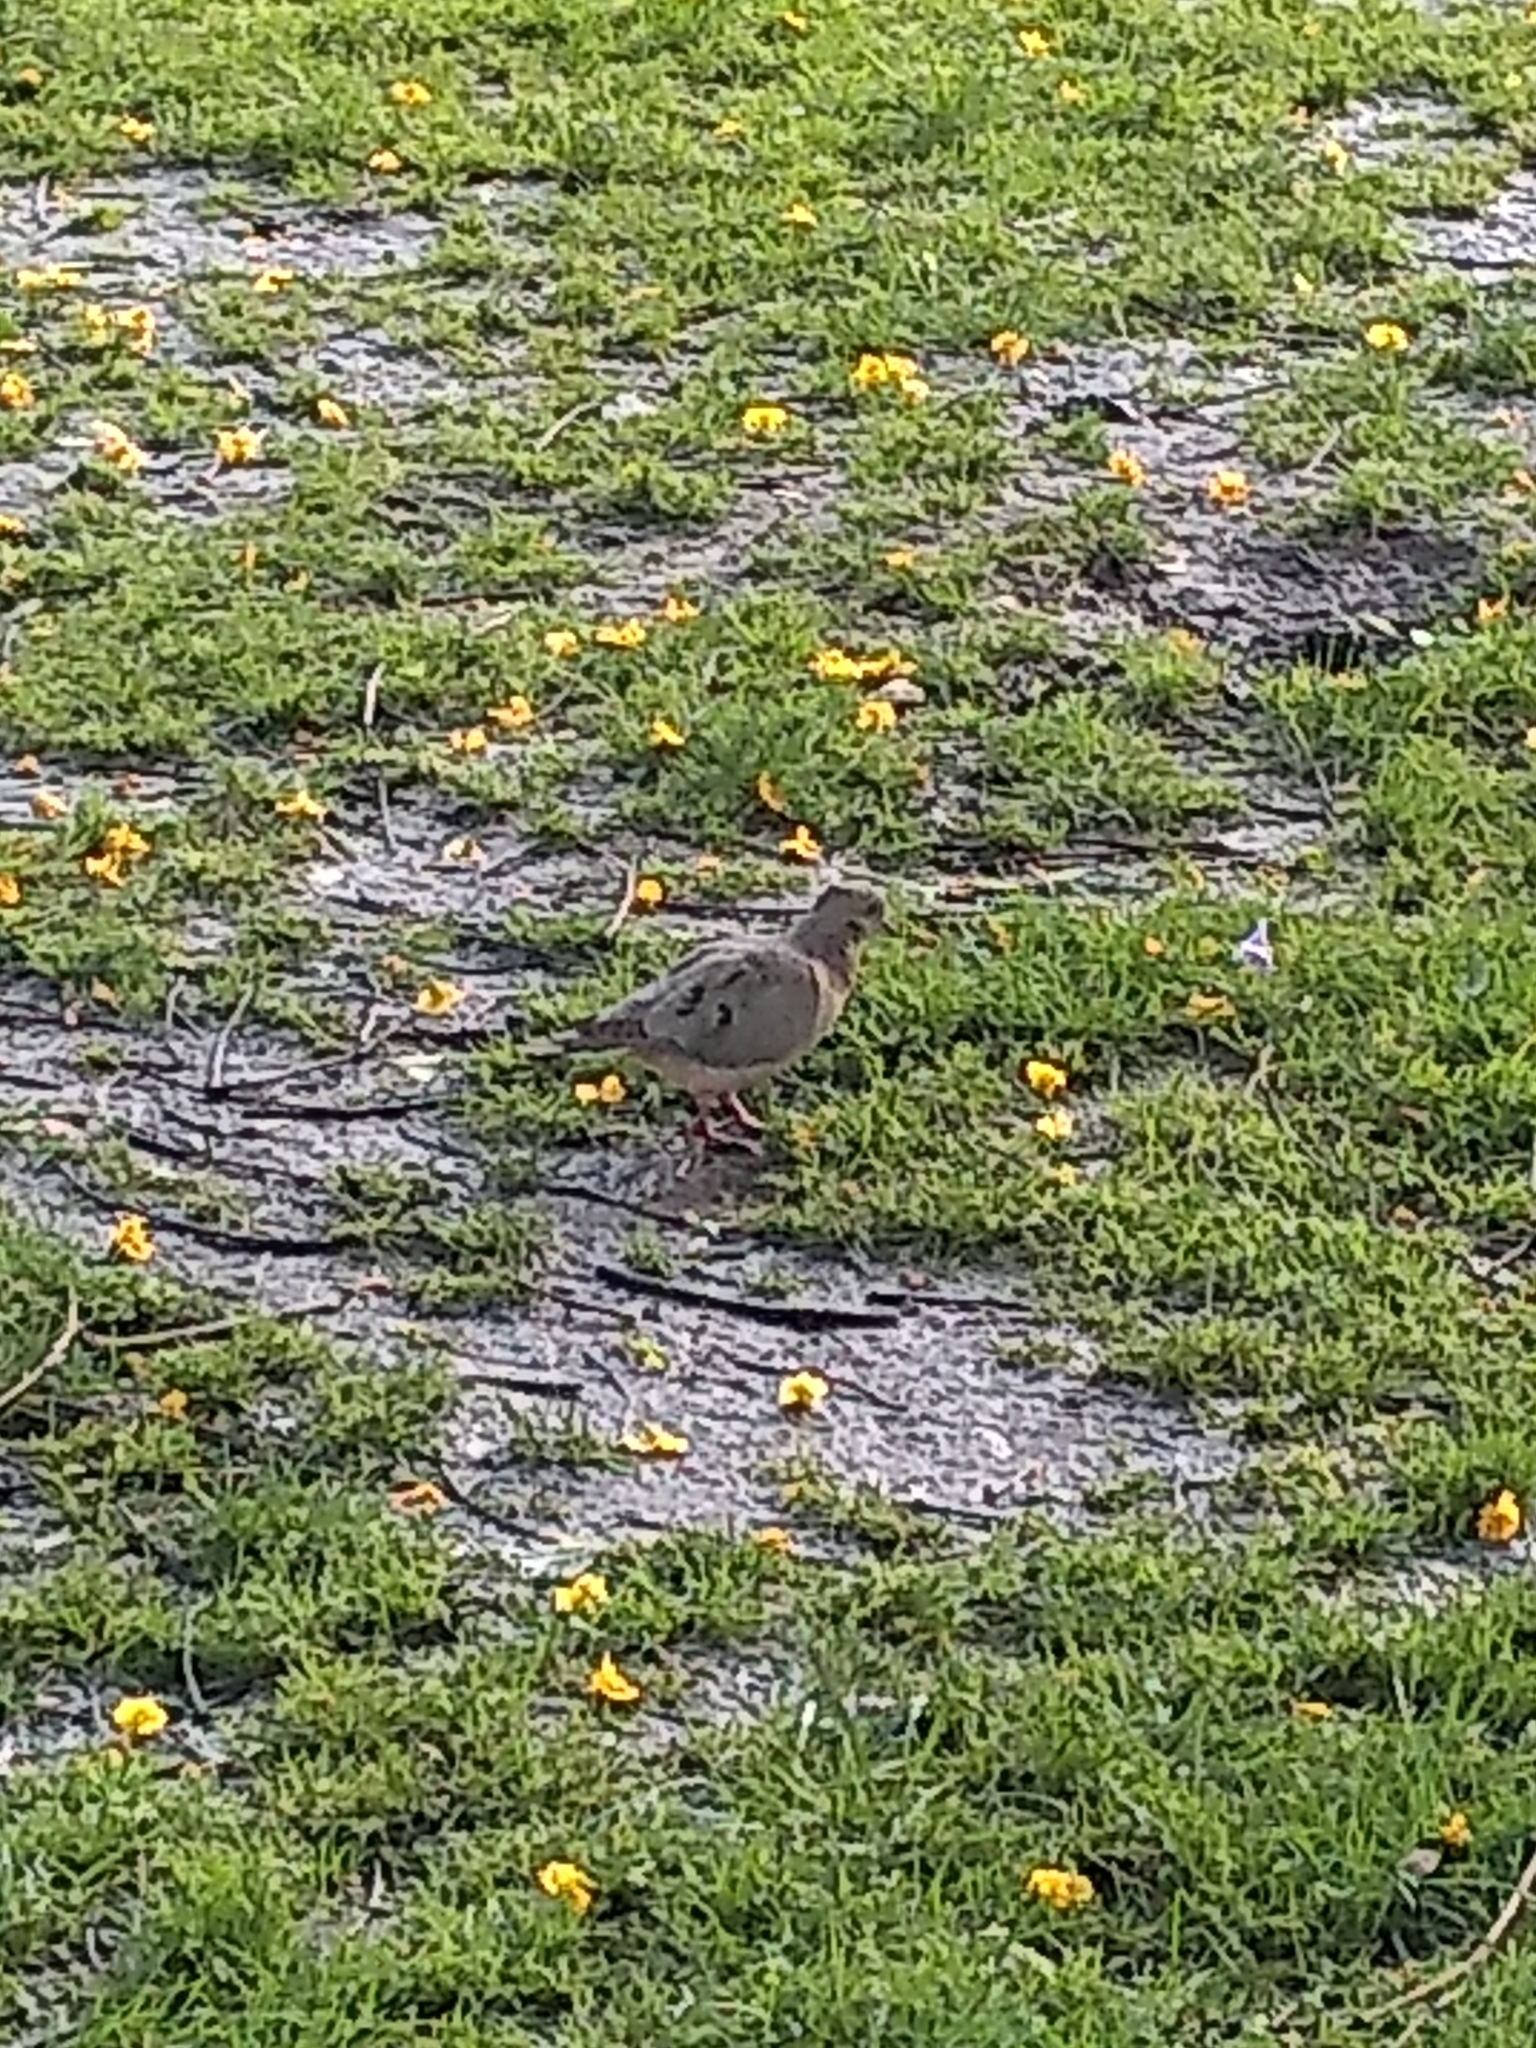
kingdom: Animalia
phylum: Chordata
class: Aves
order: Columbiformes
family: Columbidae
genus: Zenaida
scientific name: Zenaida auriculata
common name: Eared dove
